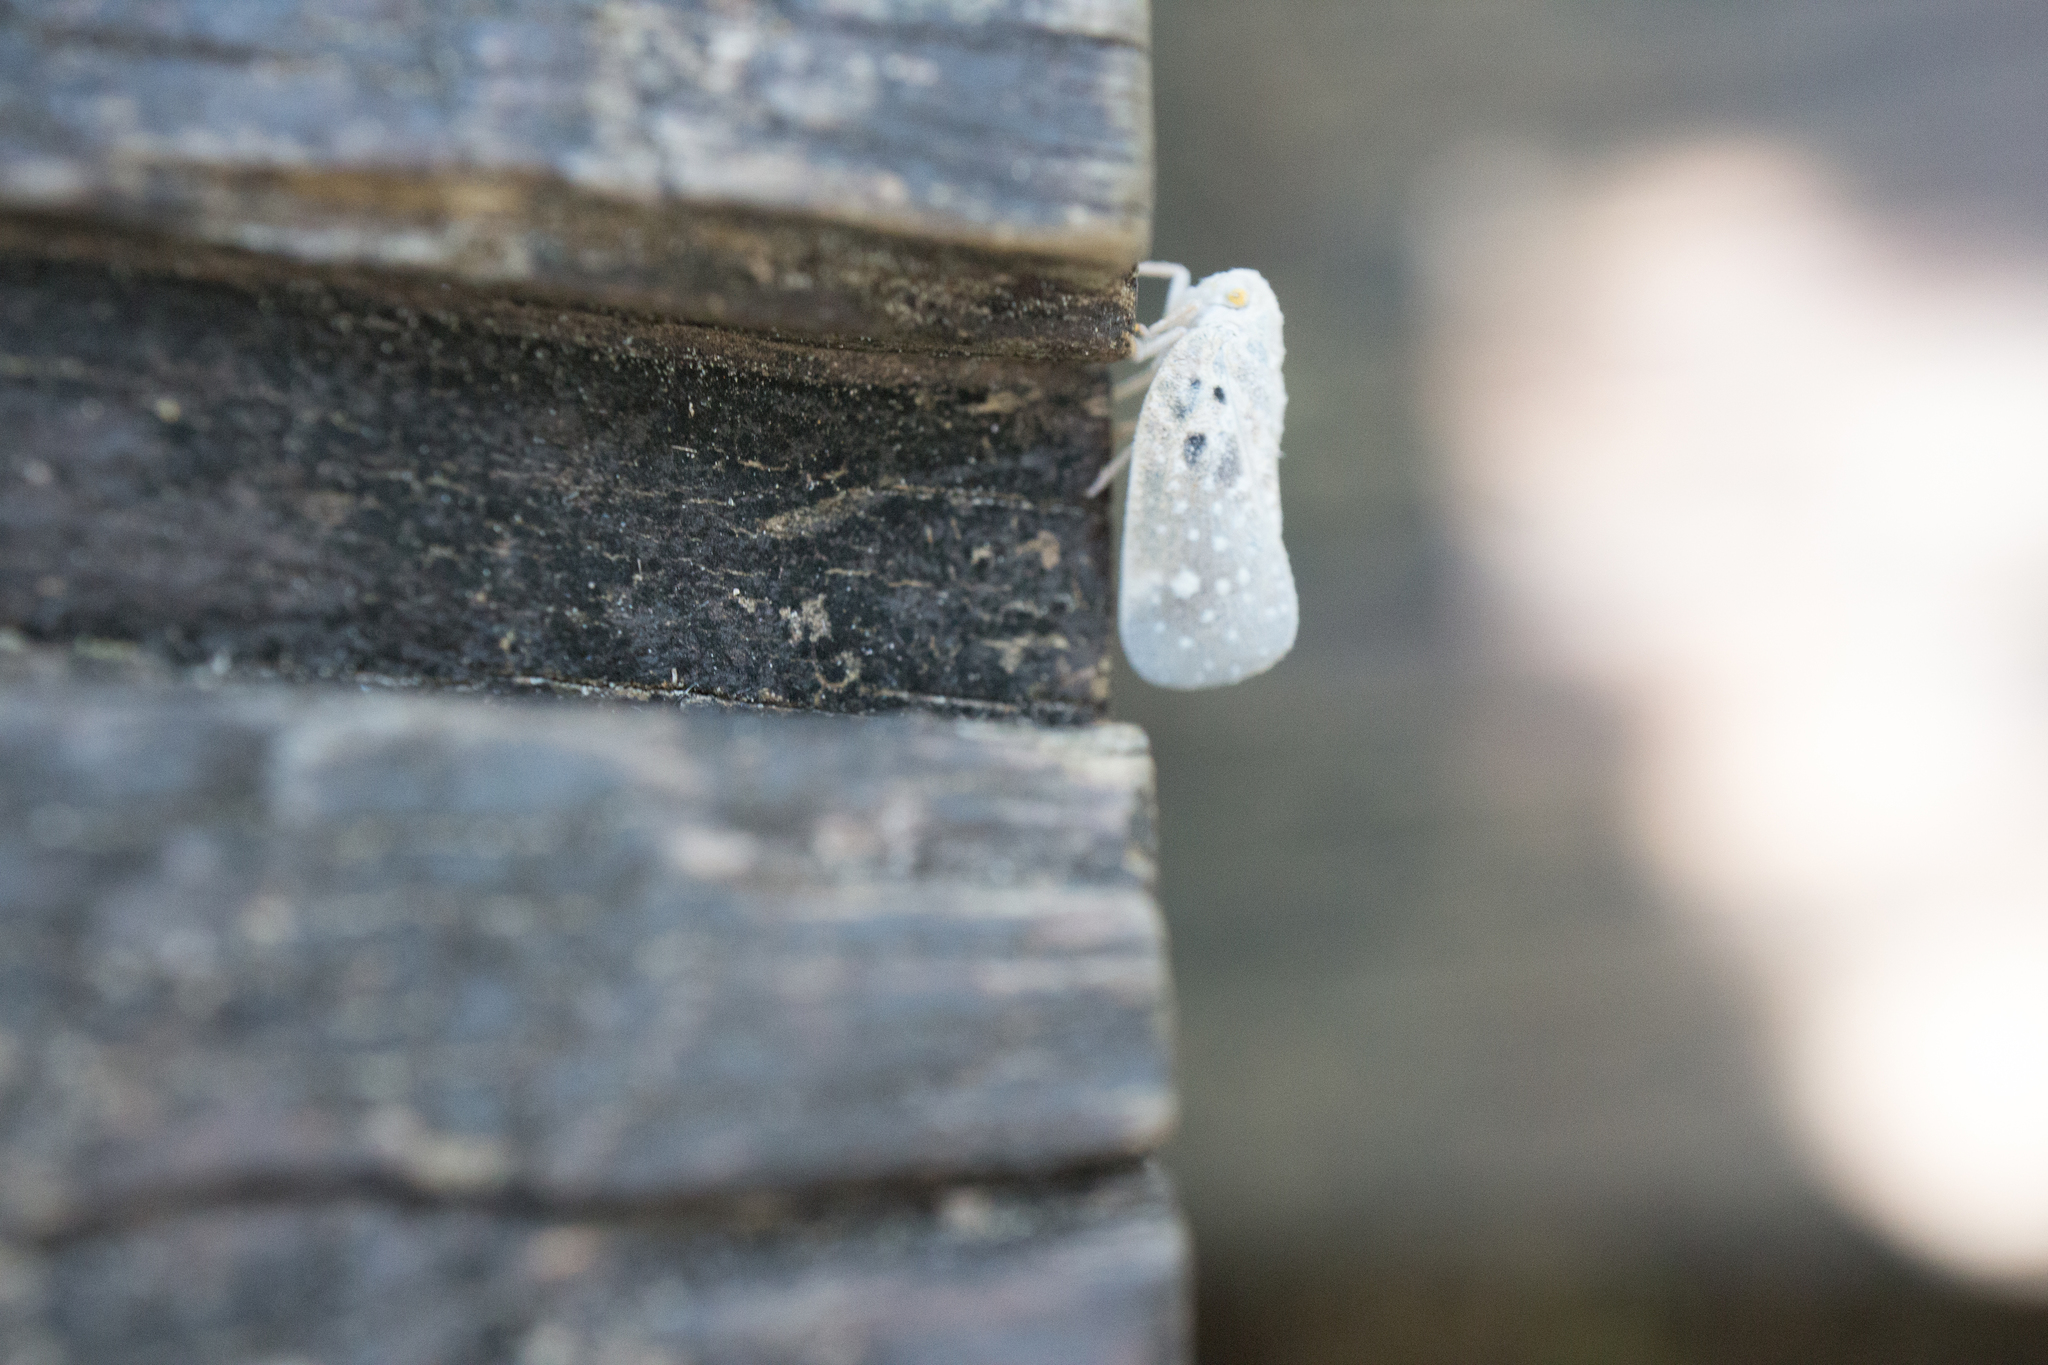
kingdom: Animalia
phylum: Arthropoda
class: Insecta
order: Hemiptera
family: Flatidae
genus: Metcalfa
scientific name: Metcalfa pruinosa
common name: Citrus flatid planthopper
